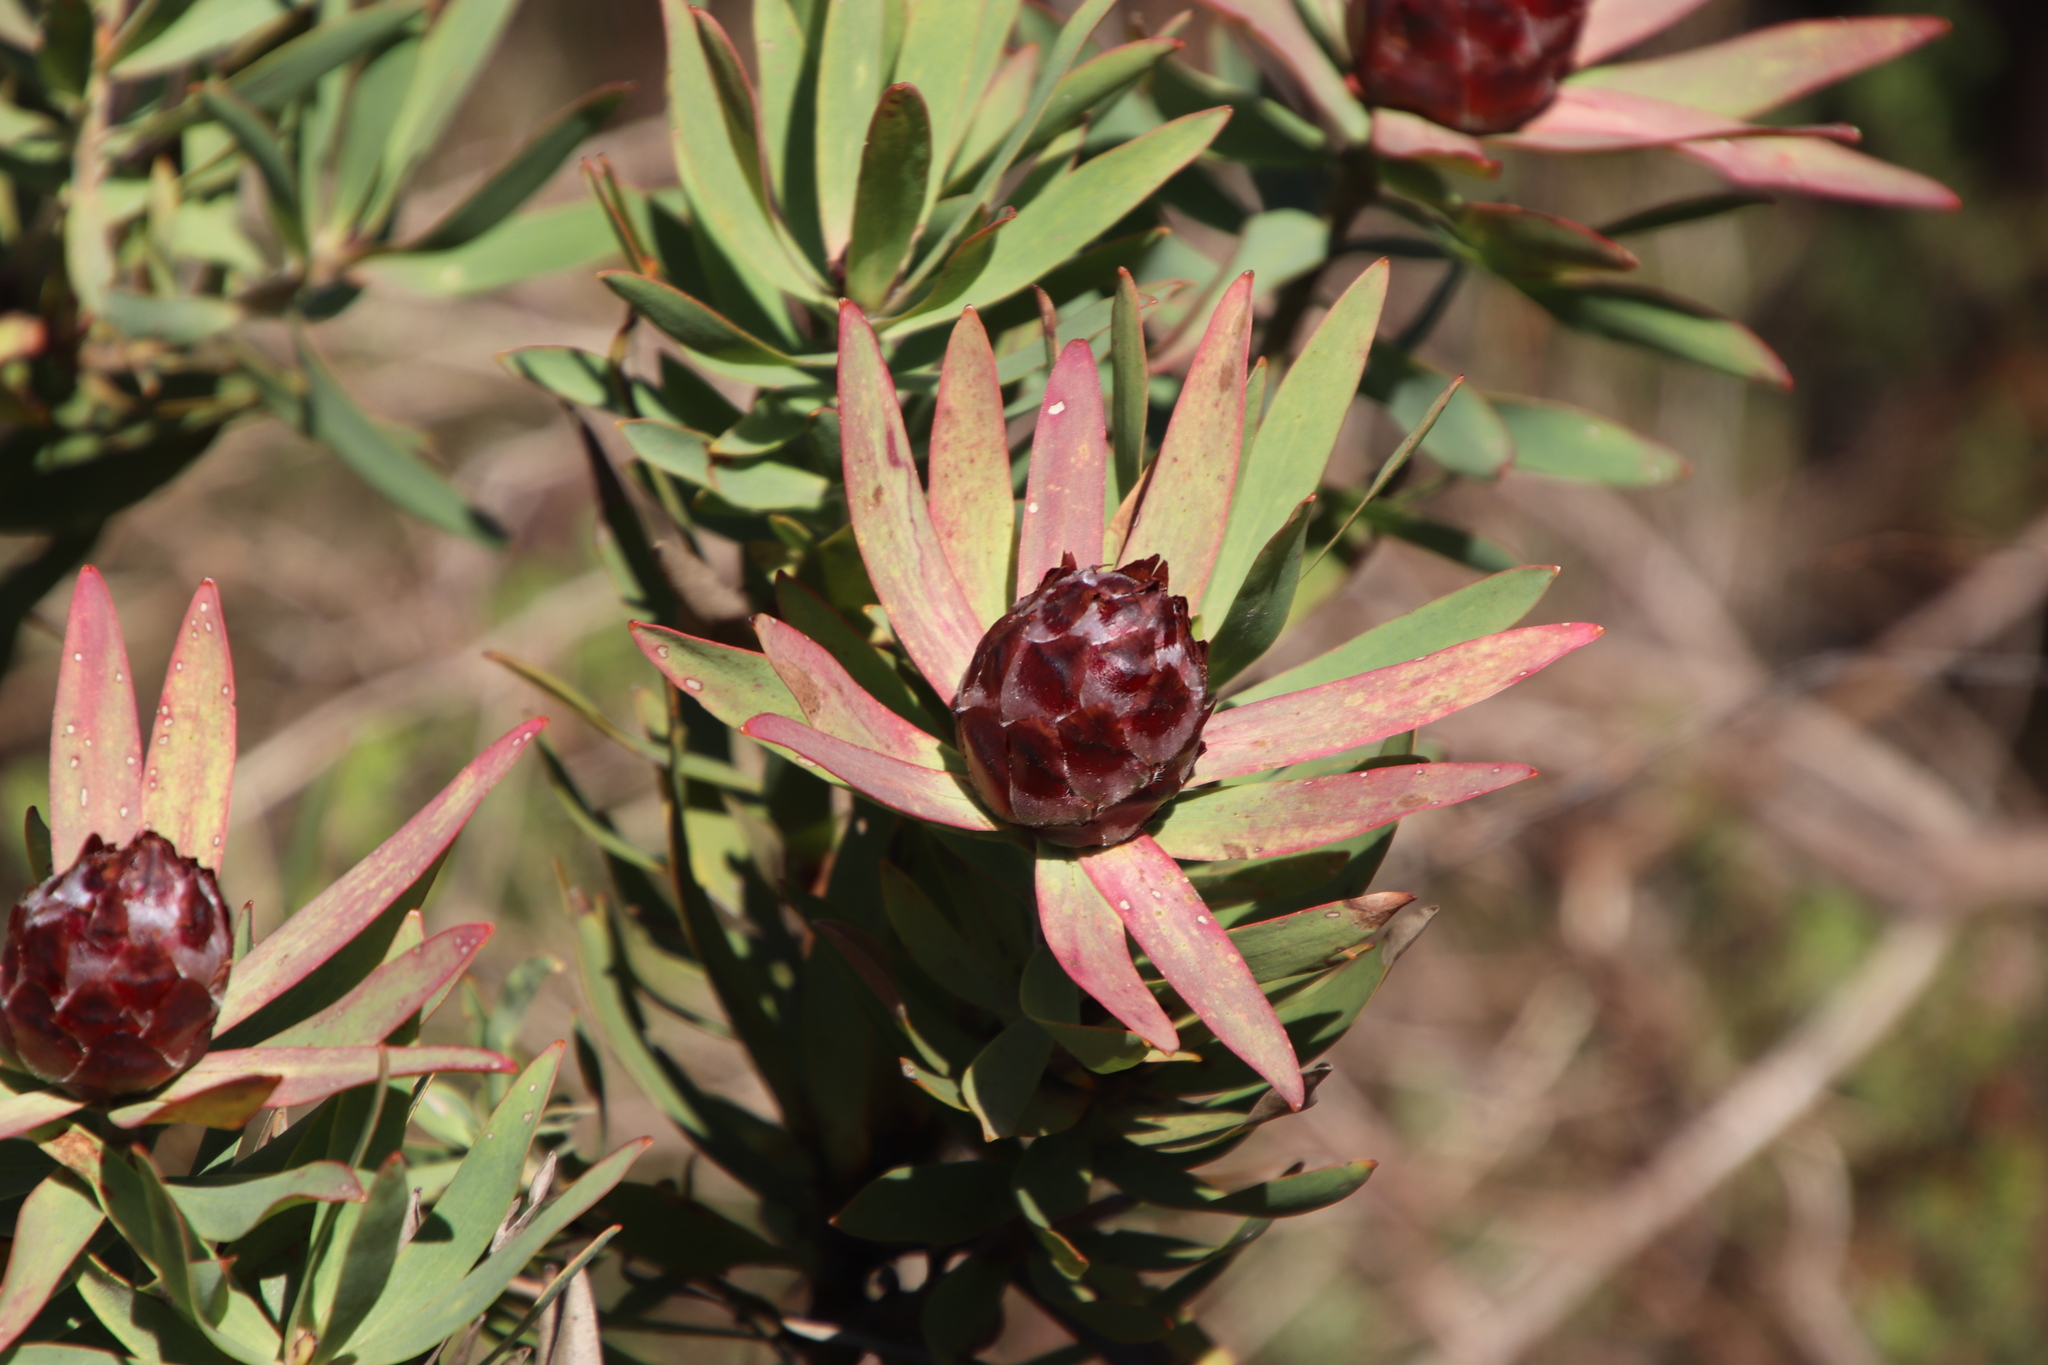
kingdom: Plantae
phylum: Tracheophyta
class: Magnoliopsida
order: Proteales
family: Proteaceae
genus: Leucadendron
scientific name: Leucadendron sessile
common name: Western sunbush
